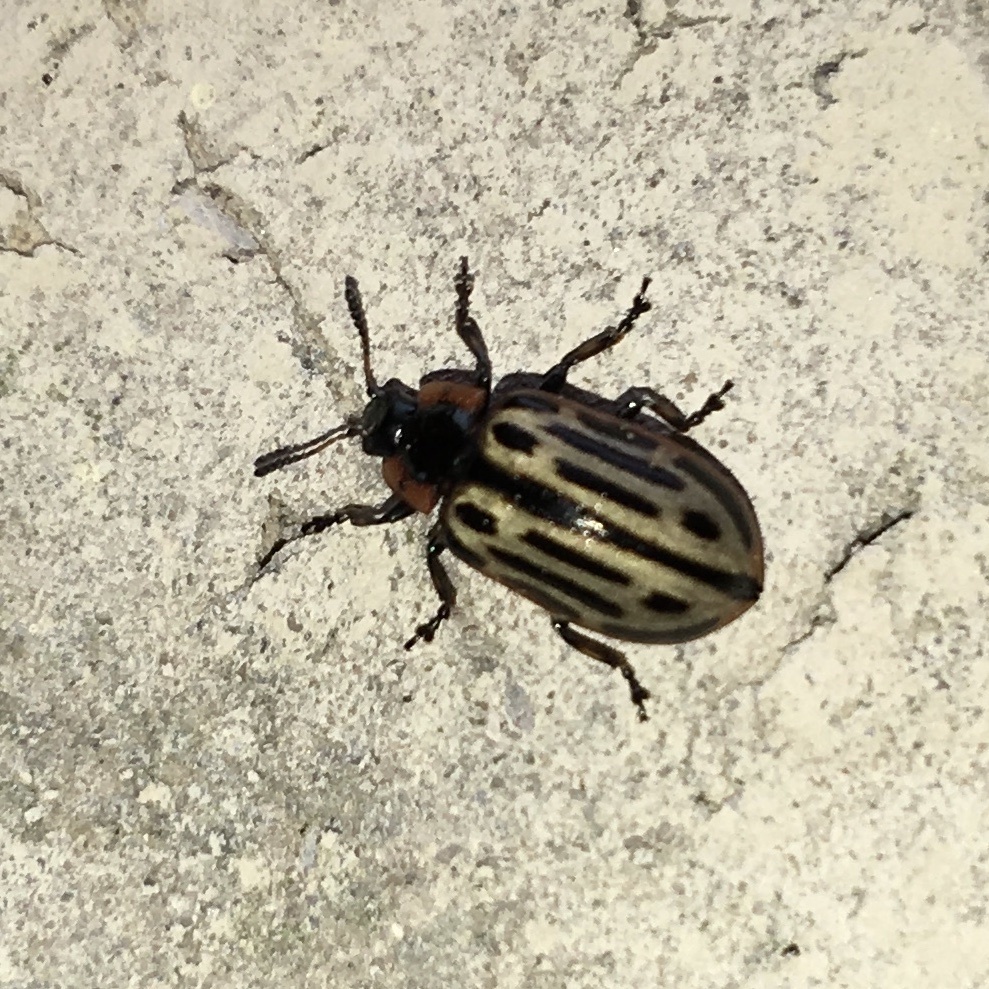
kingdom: Animalia
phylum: Arthropoda
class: Insecta
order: Coleoptera
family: Chrysomelidae
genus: Aethiopocassis
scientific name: Aethiopocassis scripta
